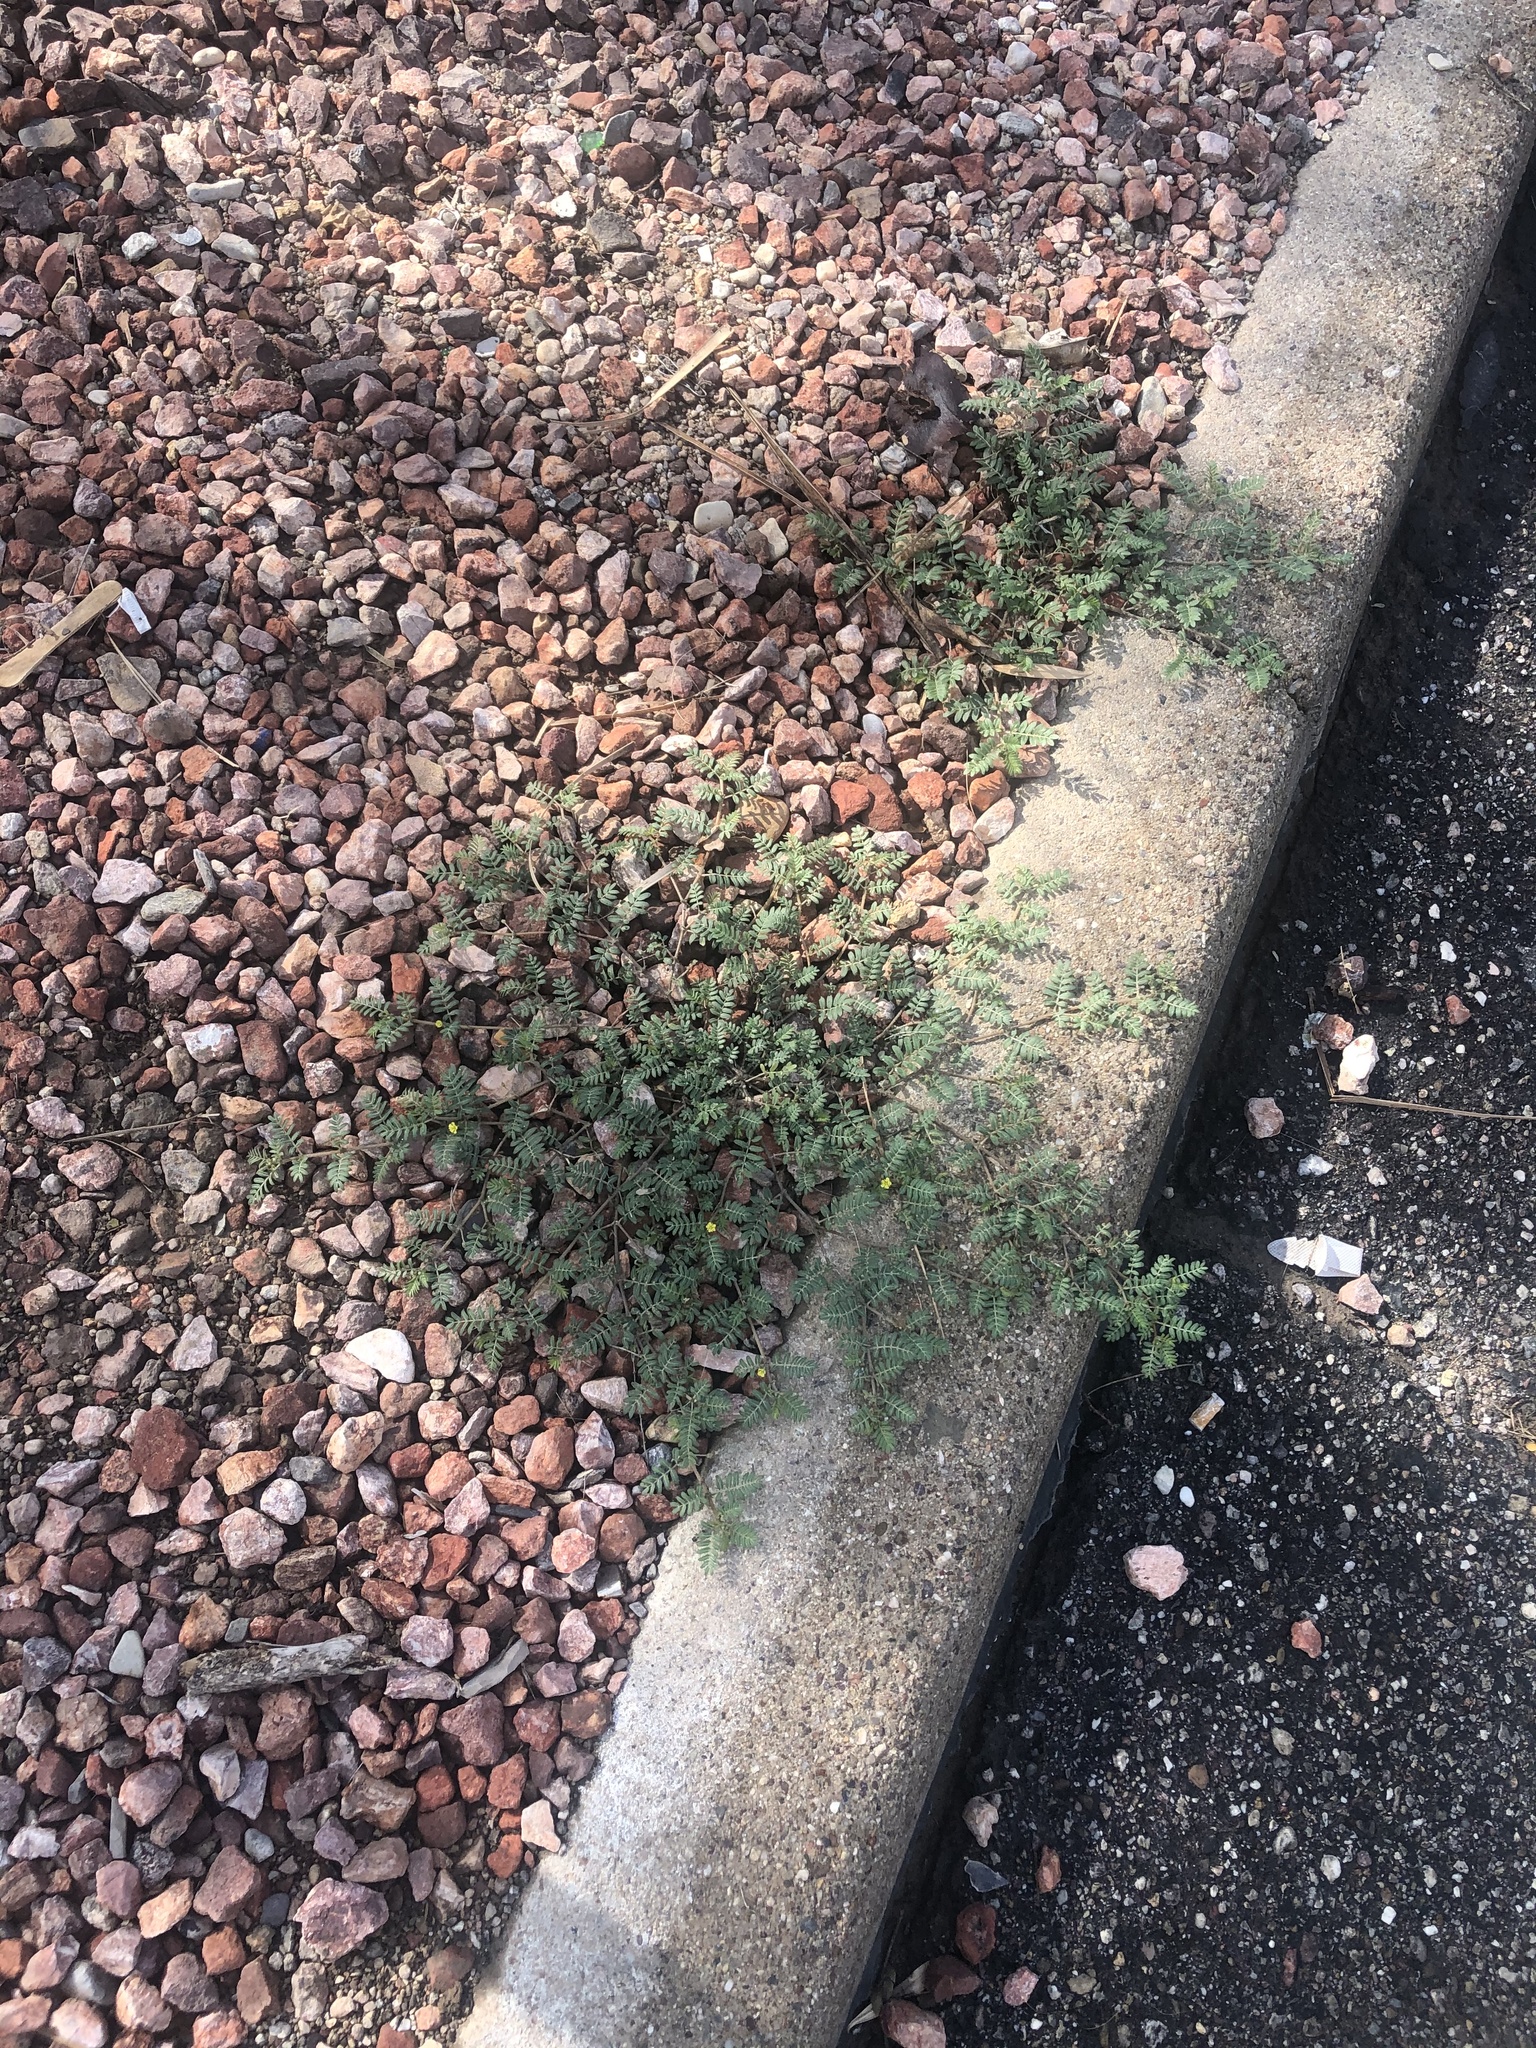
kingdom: Plantae
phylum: Tracheophyta
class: Magnoliopsida
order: Zygophyllales
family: Zygophyllaceae
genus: Tribulus
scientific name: Tribulus terrestris
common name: Puncturevine
